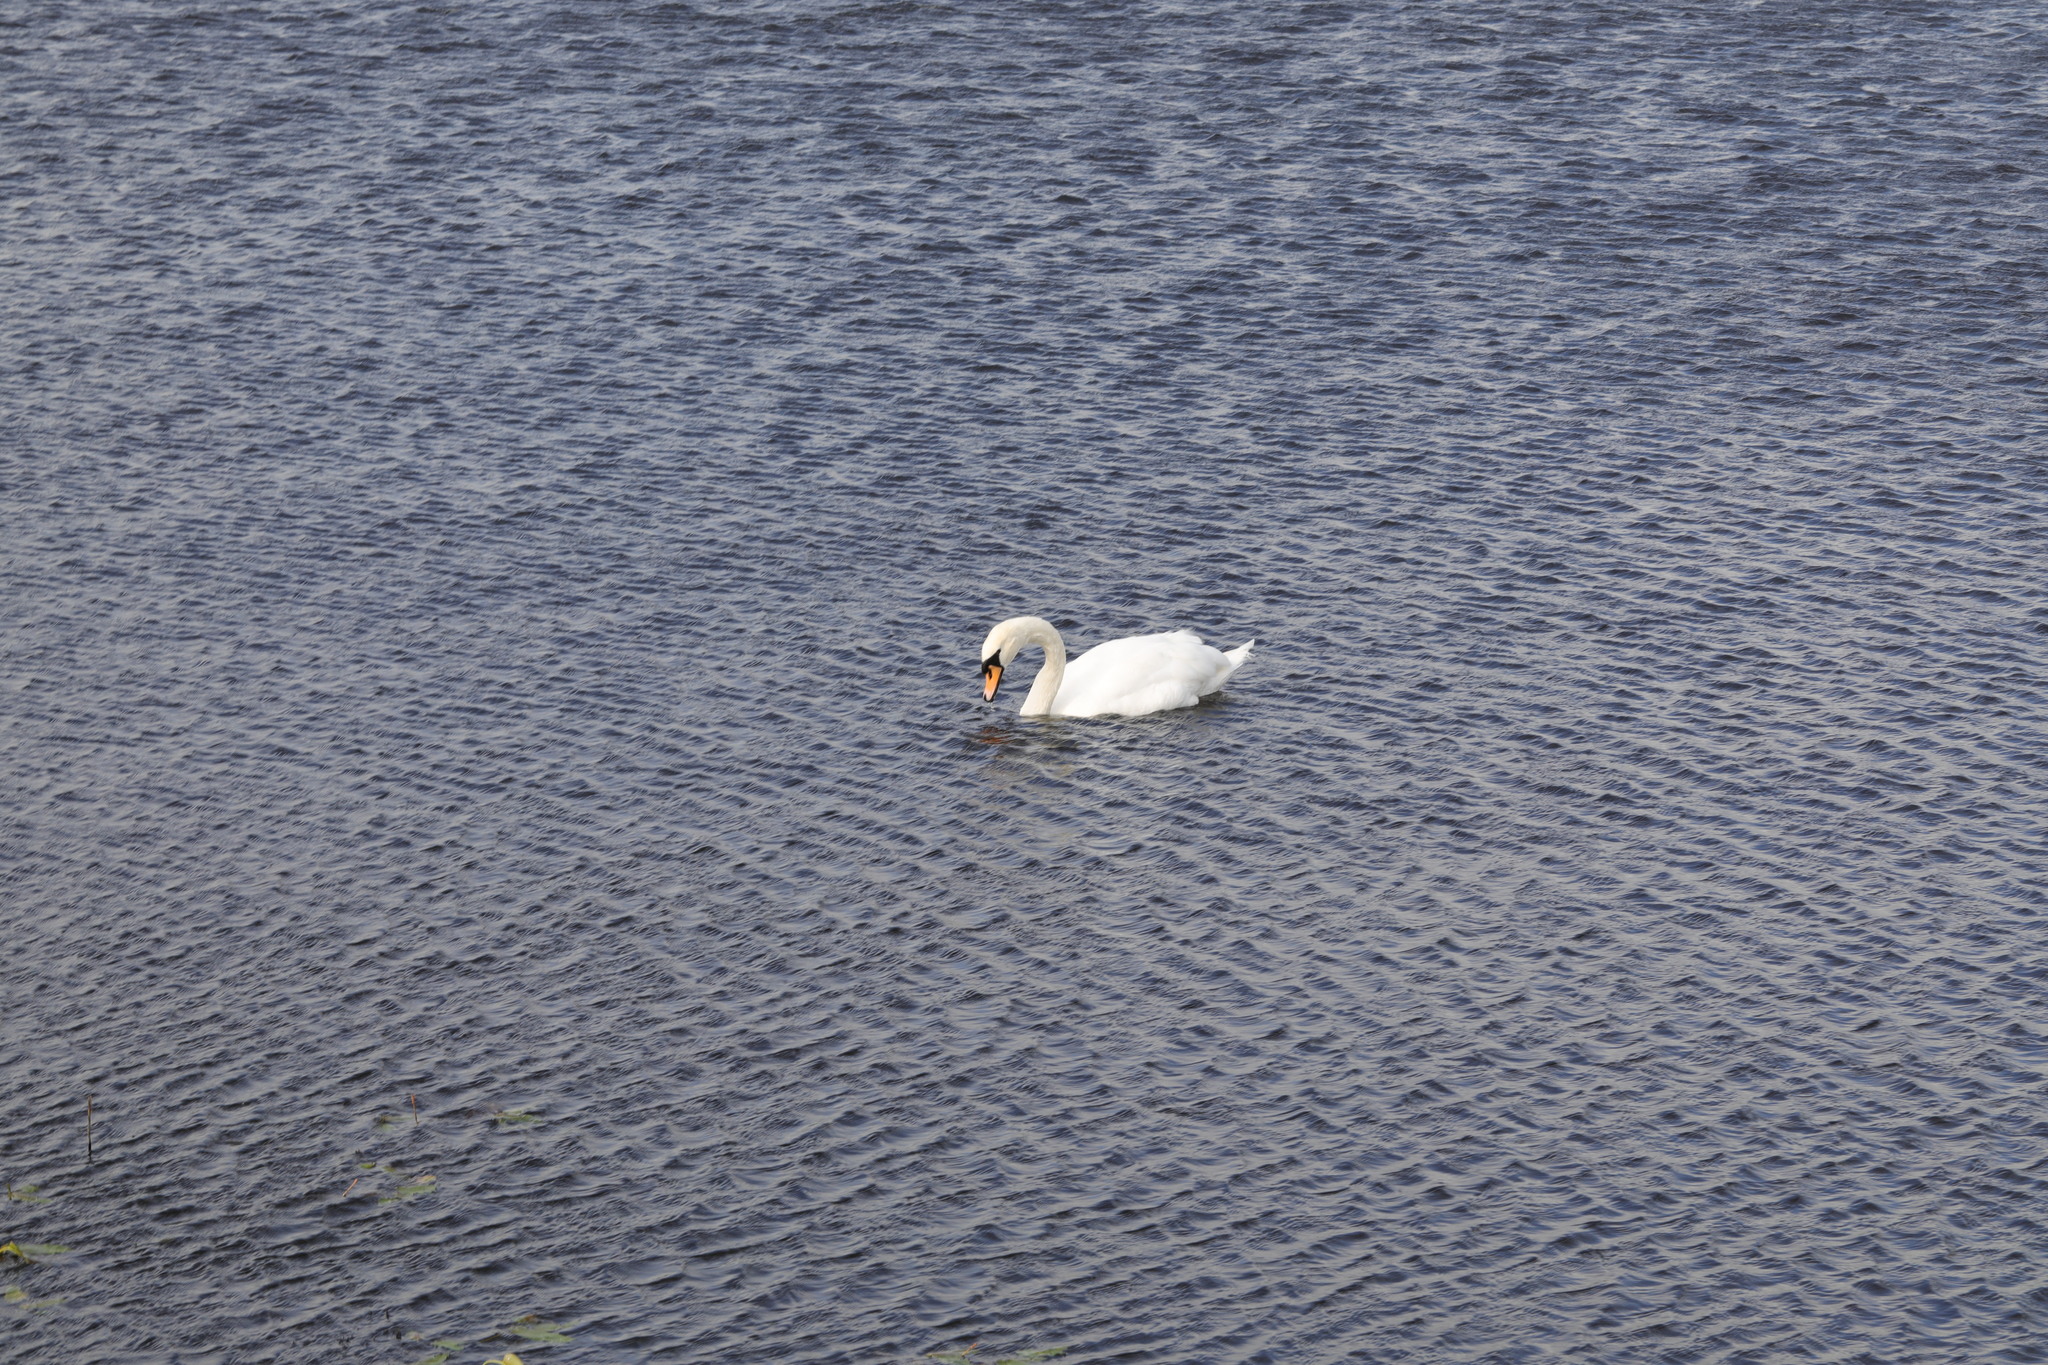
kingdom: Animalia
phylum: Chordata
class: Aves
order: Anseriformes
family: Anatidae
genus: Cygnus
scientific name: Cygnus olor
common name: Mute swan
